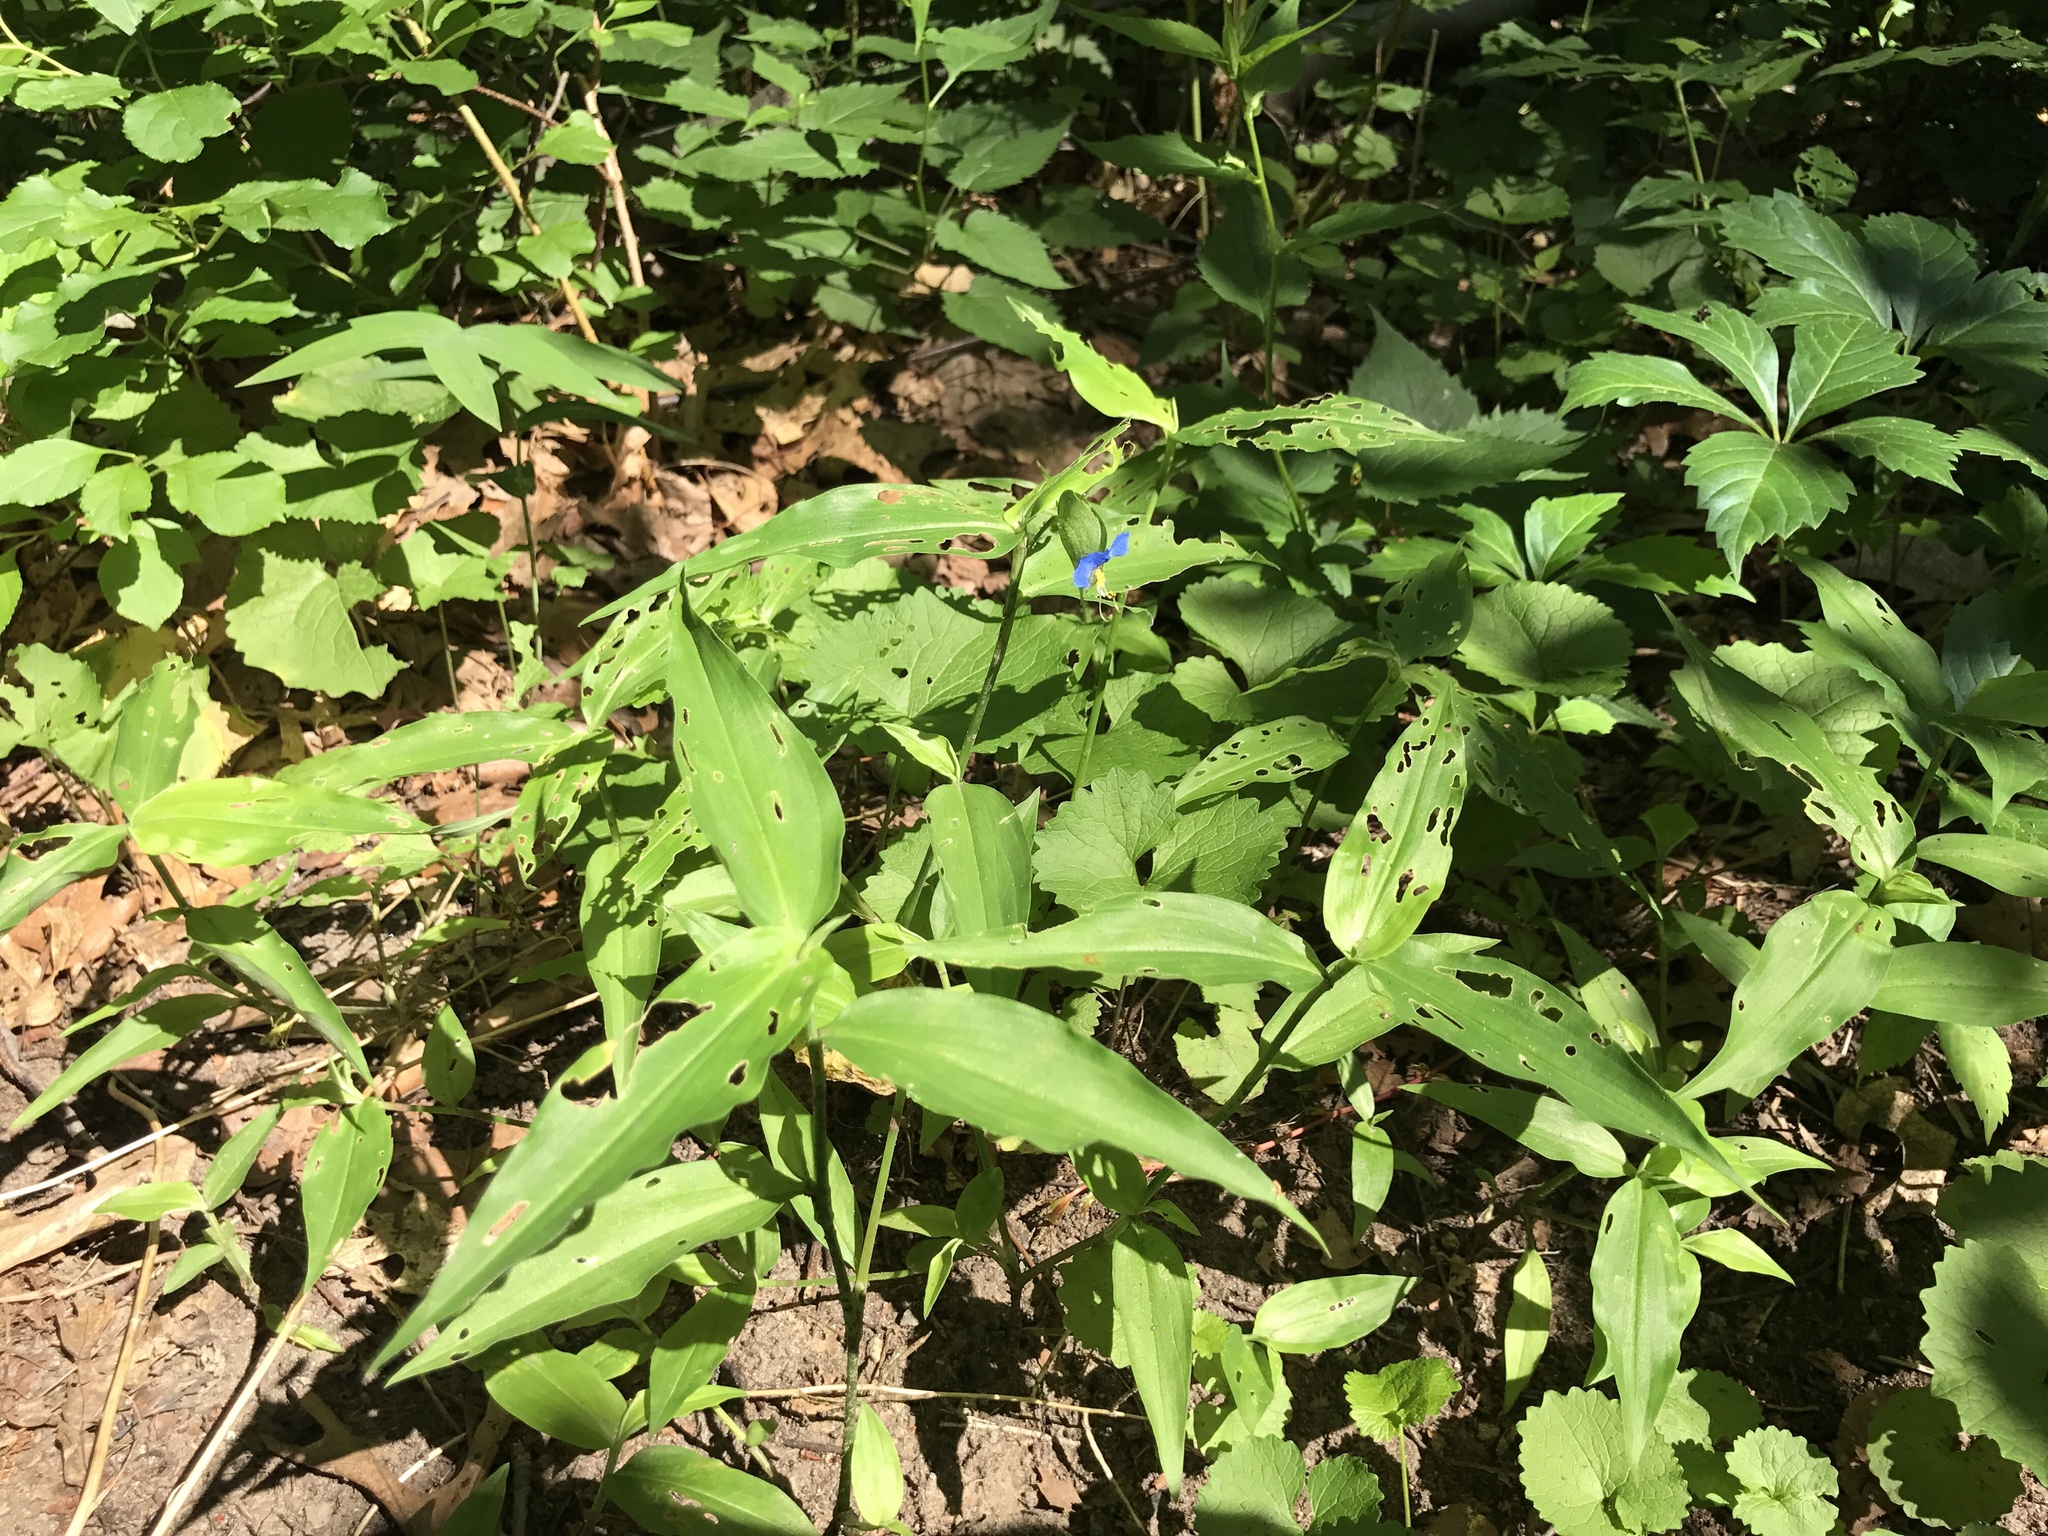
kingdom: Plantae
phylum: Tracheophyta
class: Liliopsida
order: Commelinales
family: Commelinaceae
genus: Commelina
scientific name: Commelina communis
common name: Asiatic dayflower
